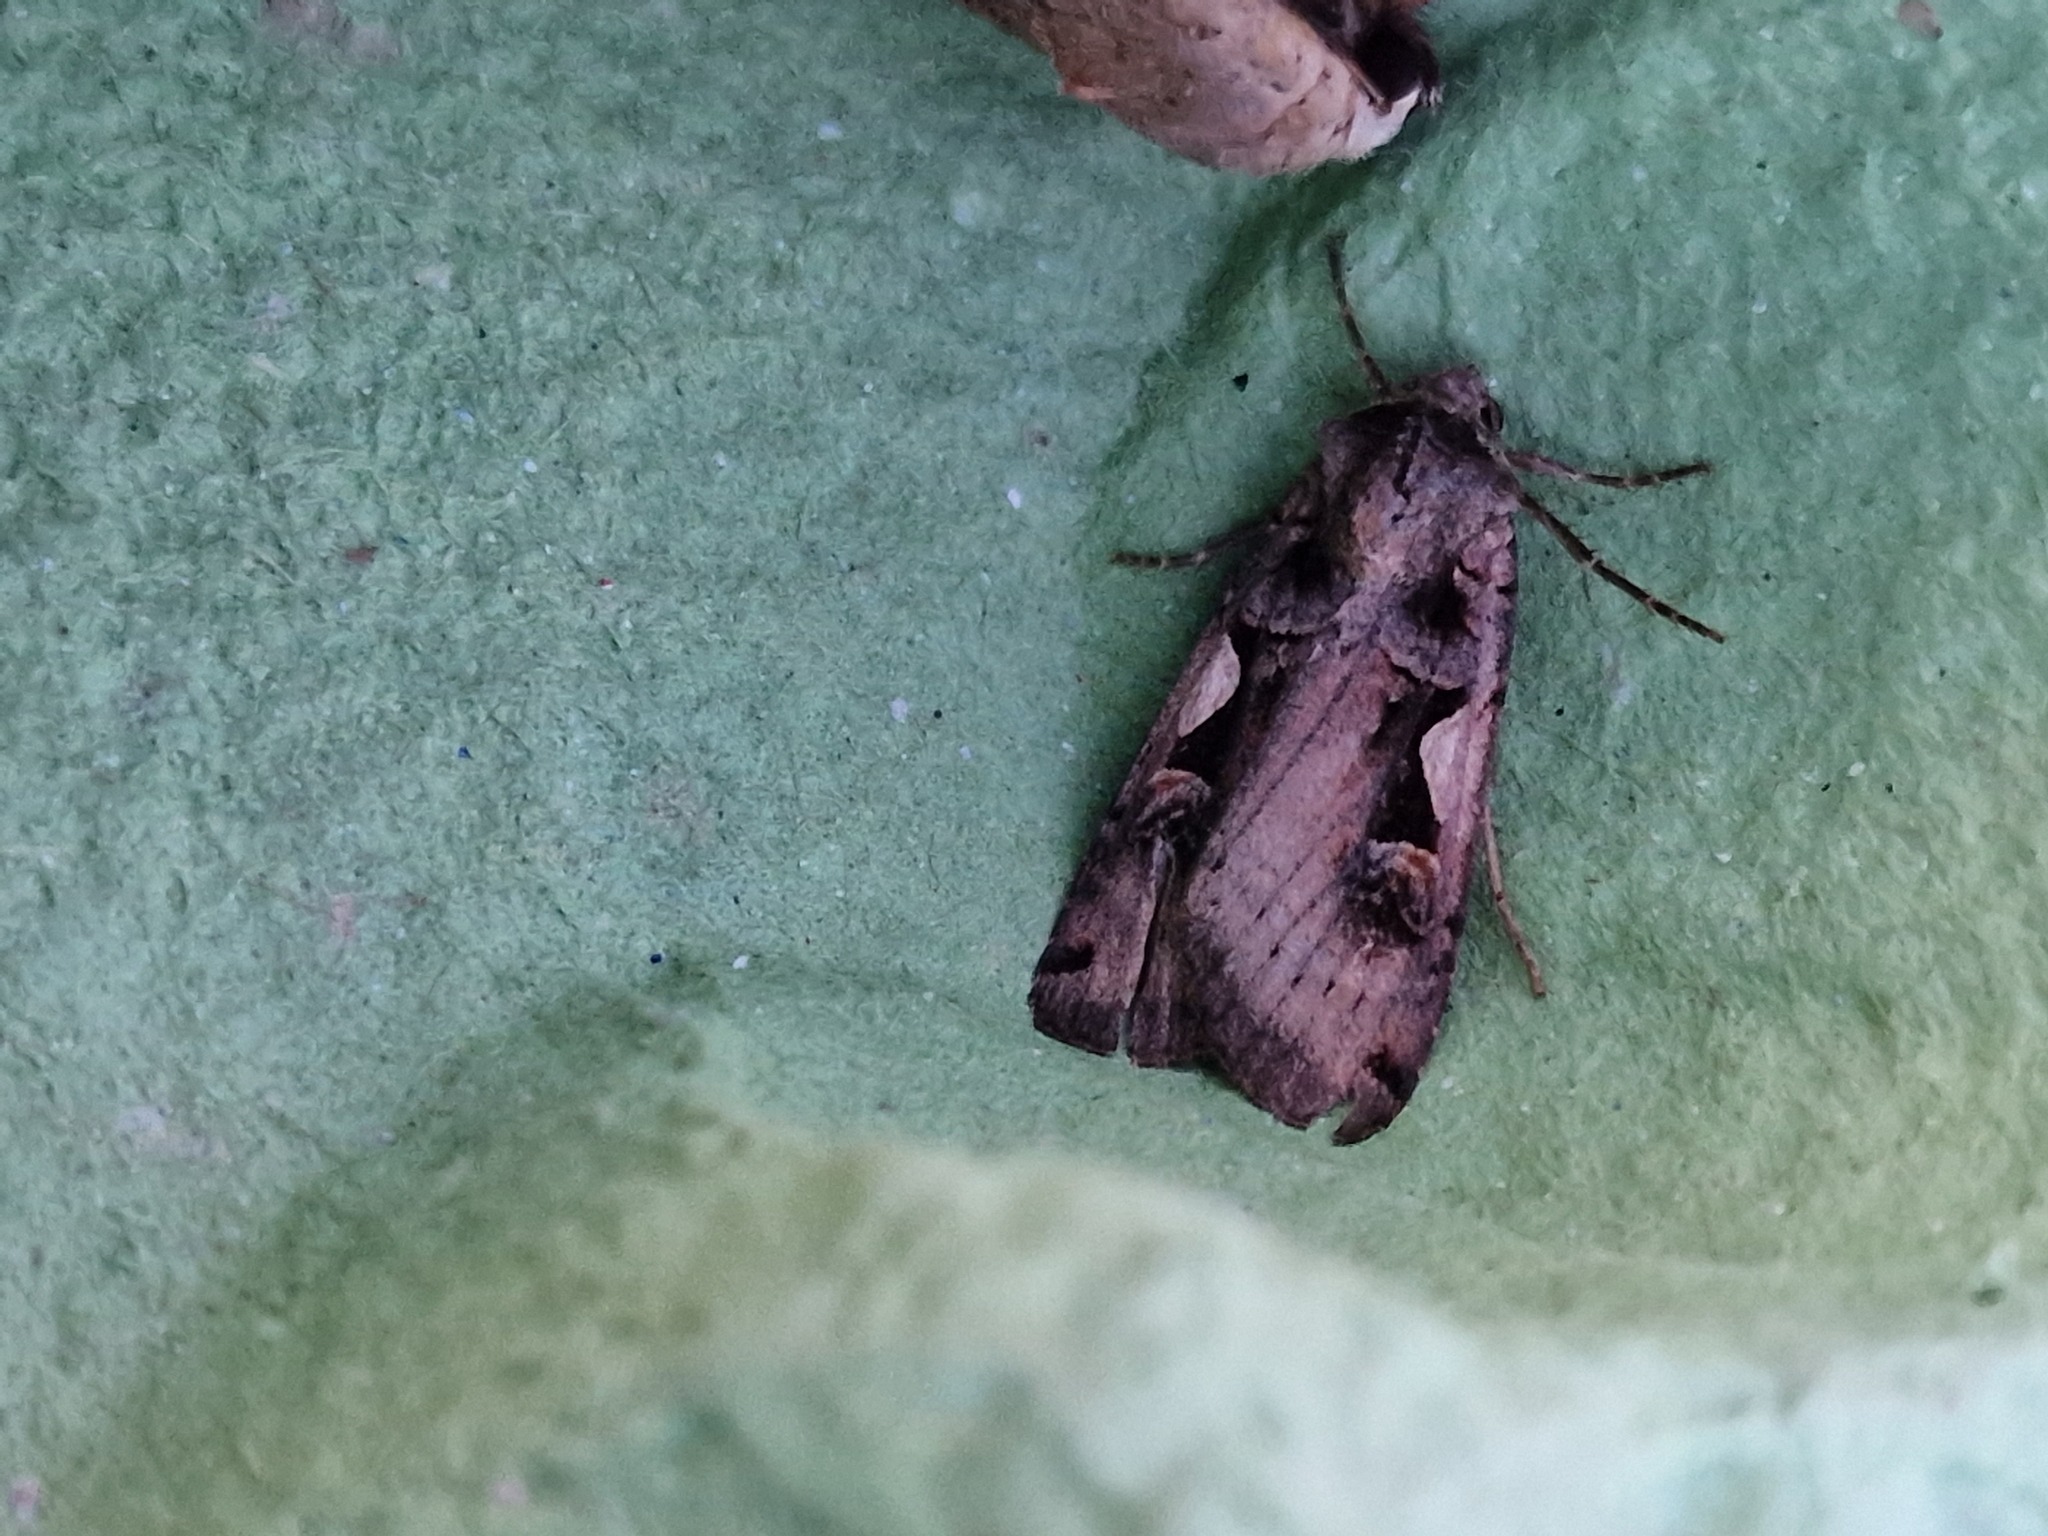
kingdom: Animalia
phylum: Arthropoda
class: Insecta
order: Lepidoptera
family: Noctuidae
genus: Xestia
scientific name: Xestia c-nigrum
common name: Setaceous hebrew character
